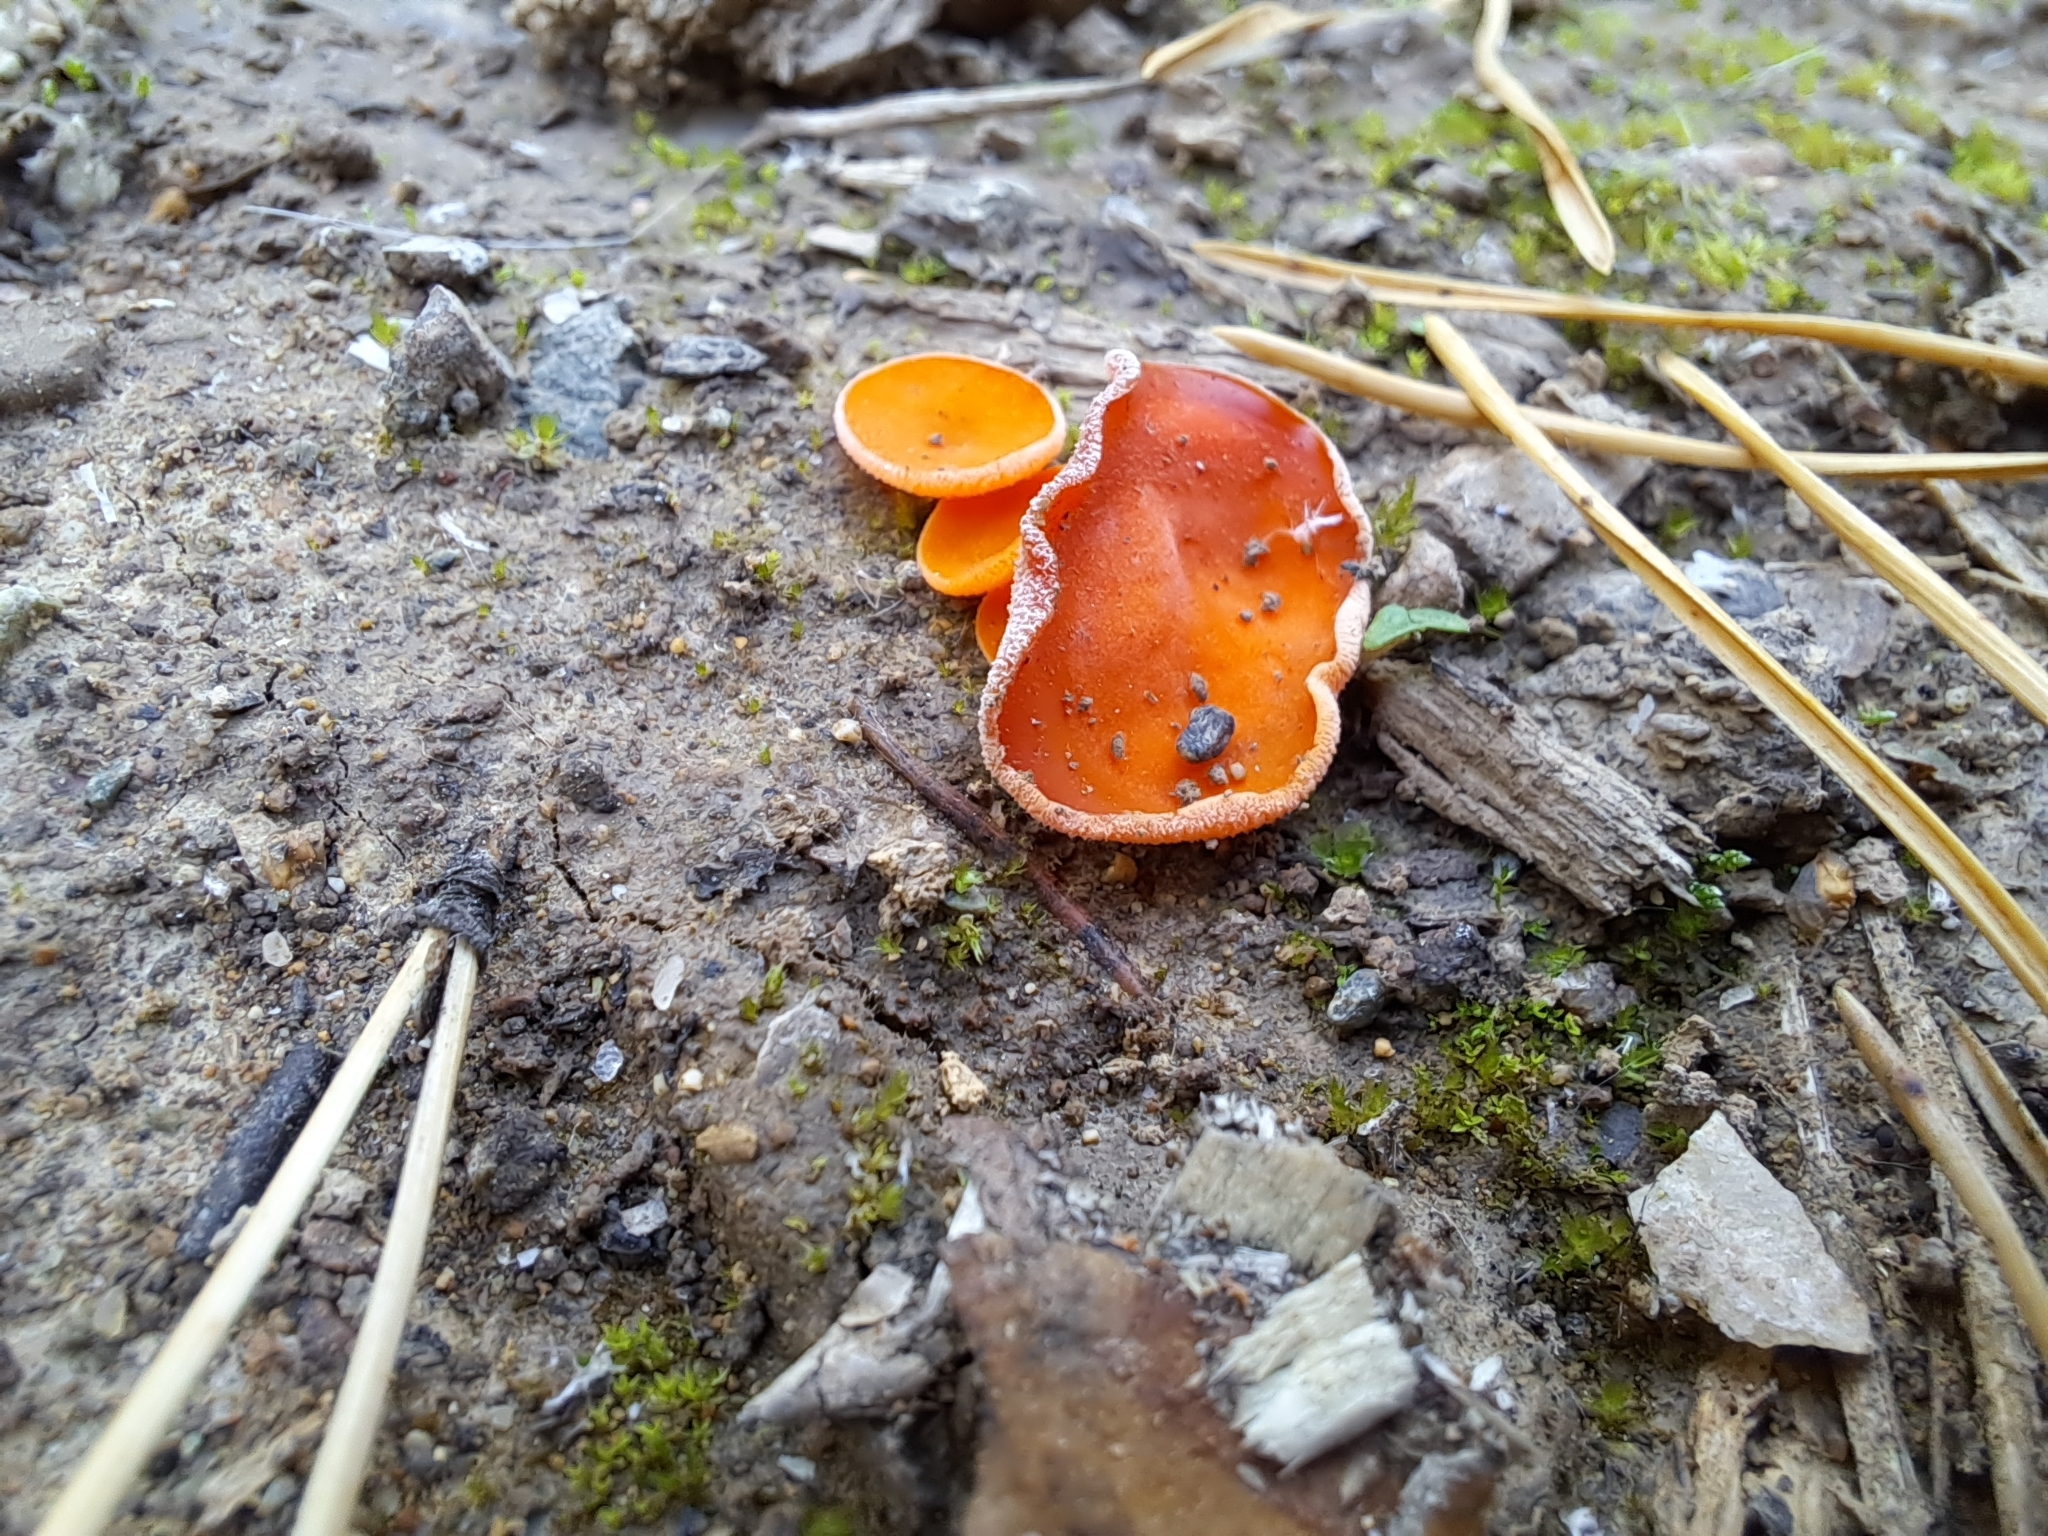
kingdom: Fungi
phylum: Ascomycota
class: Pezizomycetes
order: Pezizales
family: Pyronemataceae
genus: Aleuria
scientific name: Aleuria aurantia
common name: Orange peel fungus
